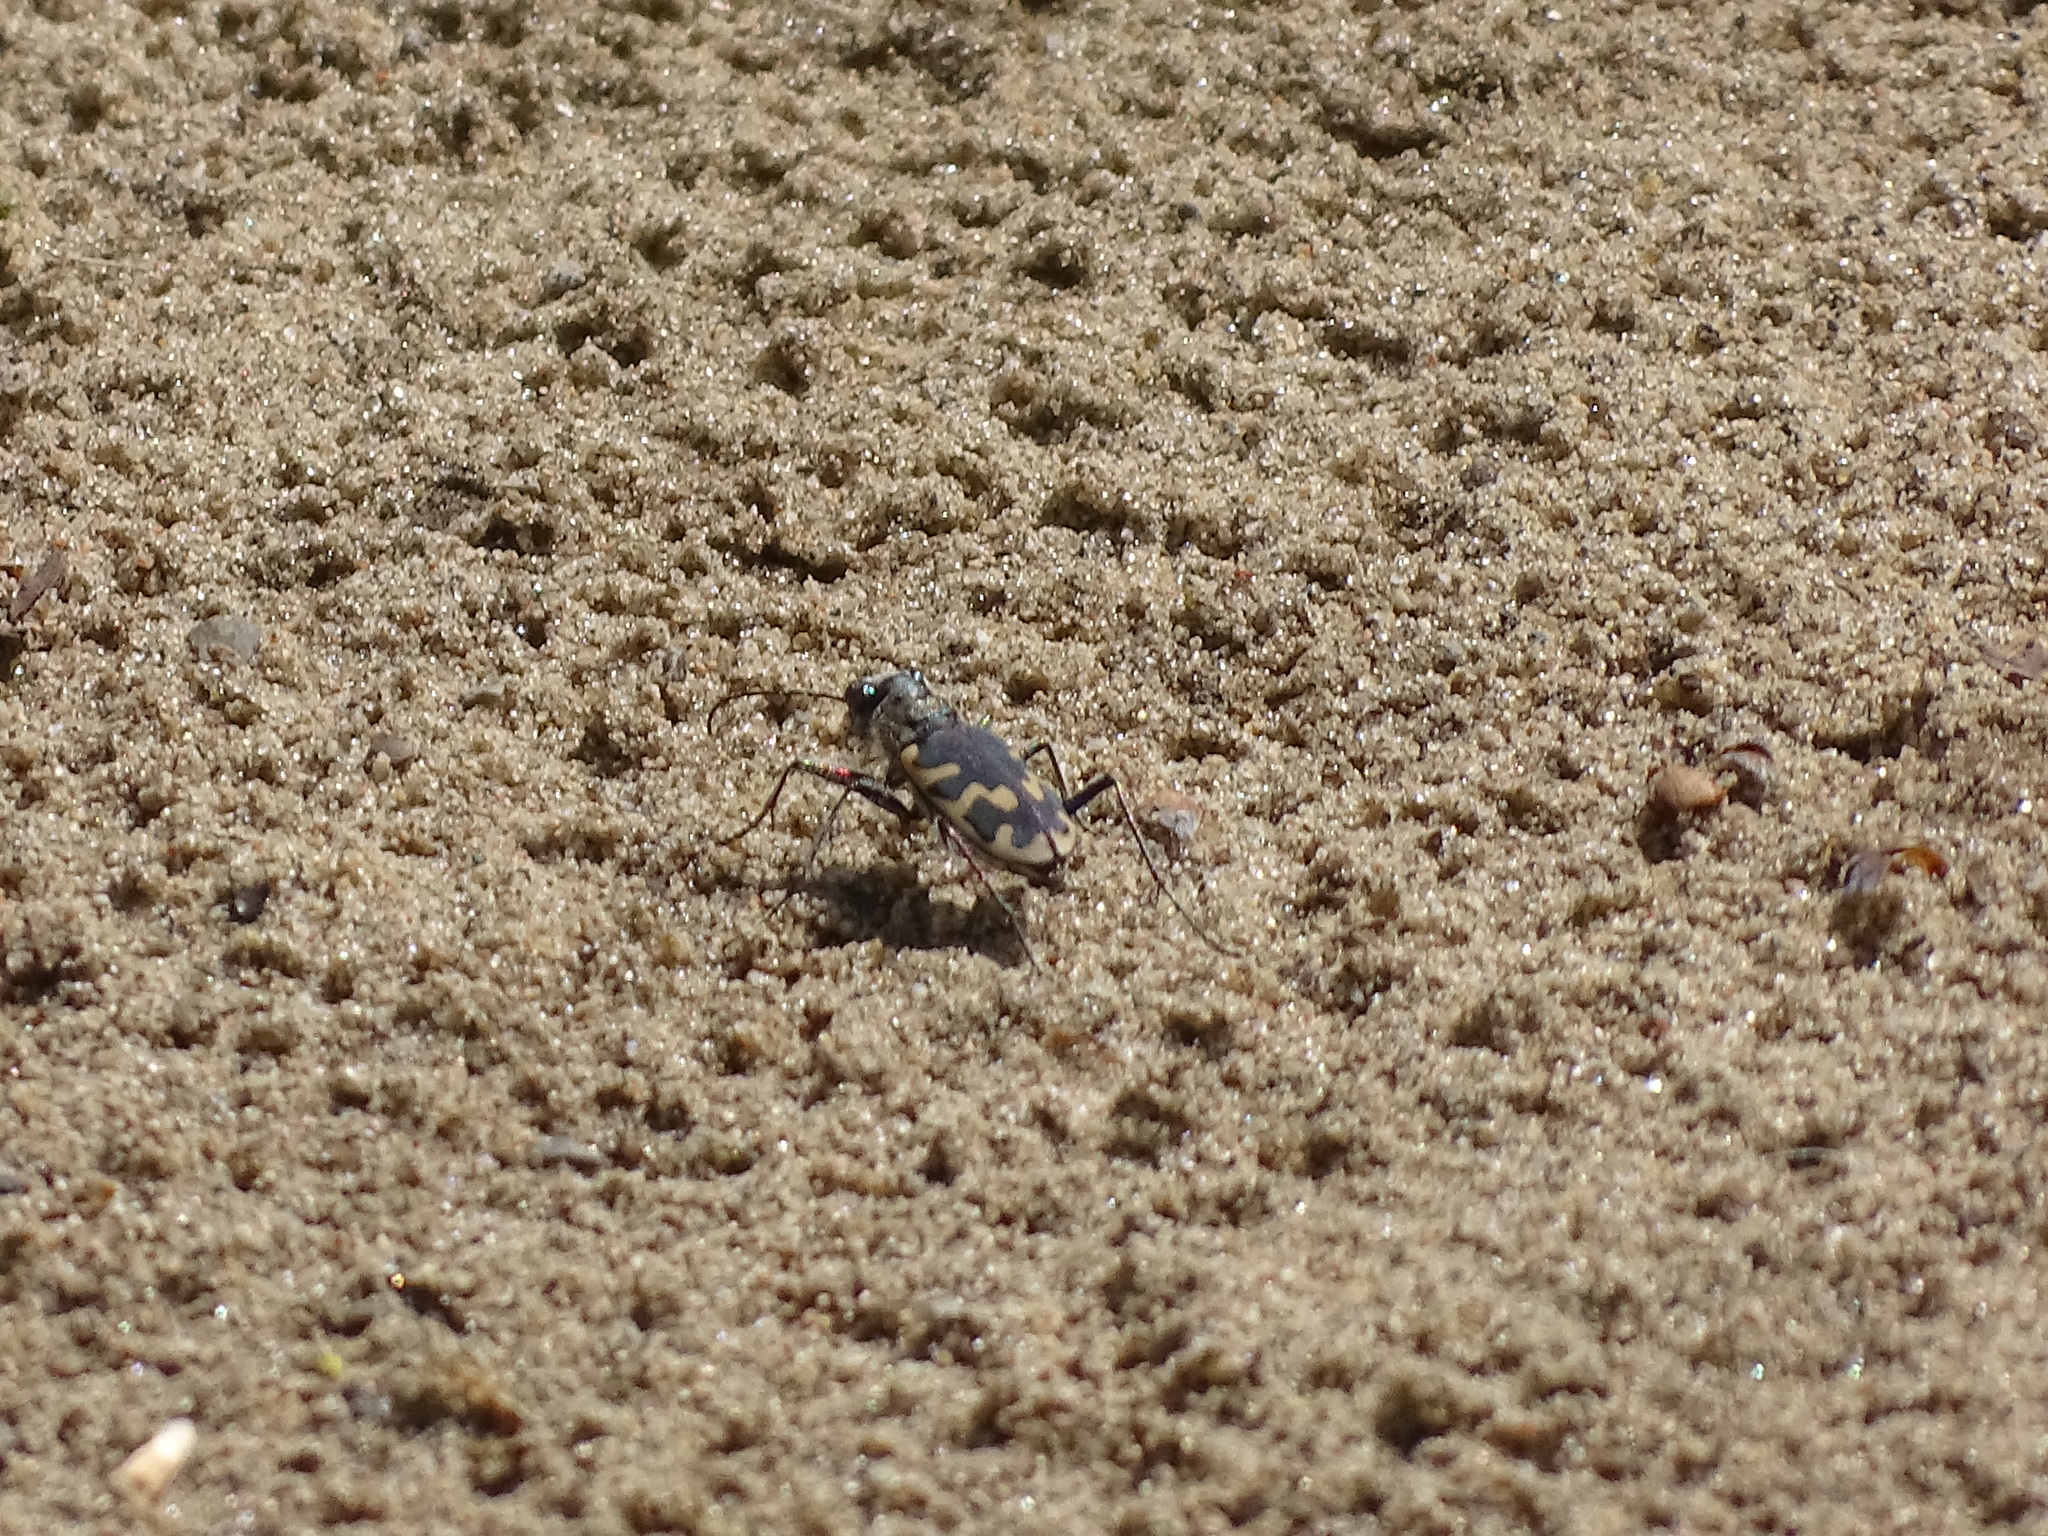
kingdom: Animalia
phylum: Arthropoda
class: Insecta
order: Coleoptera
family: Carabidae
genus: Cicindela
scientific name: Cicindela formosa
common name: Big sand tiger beetle
